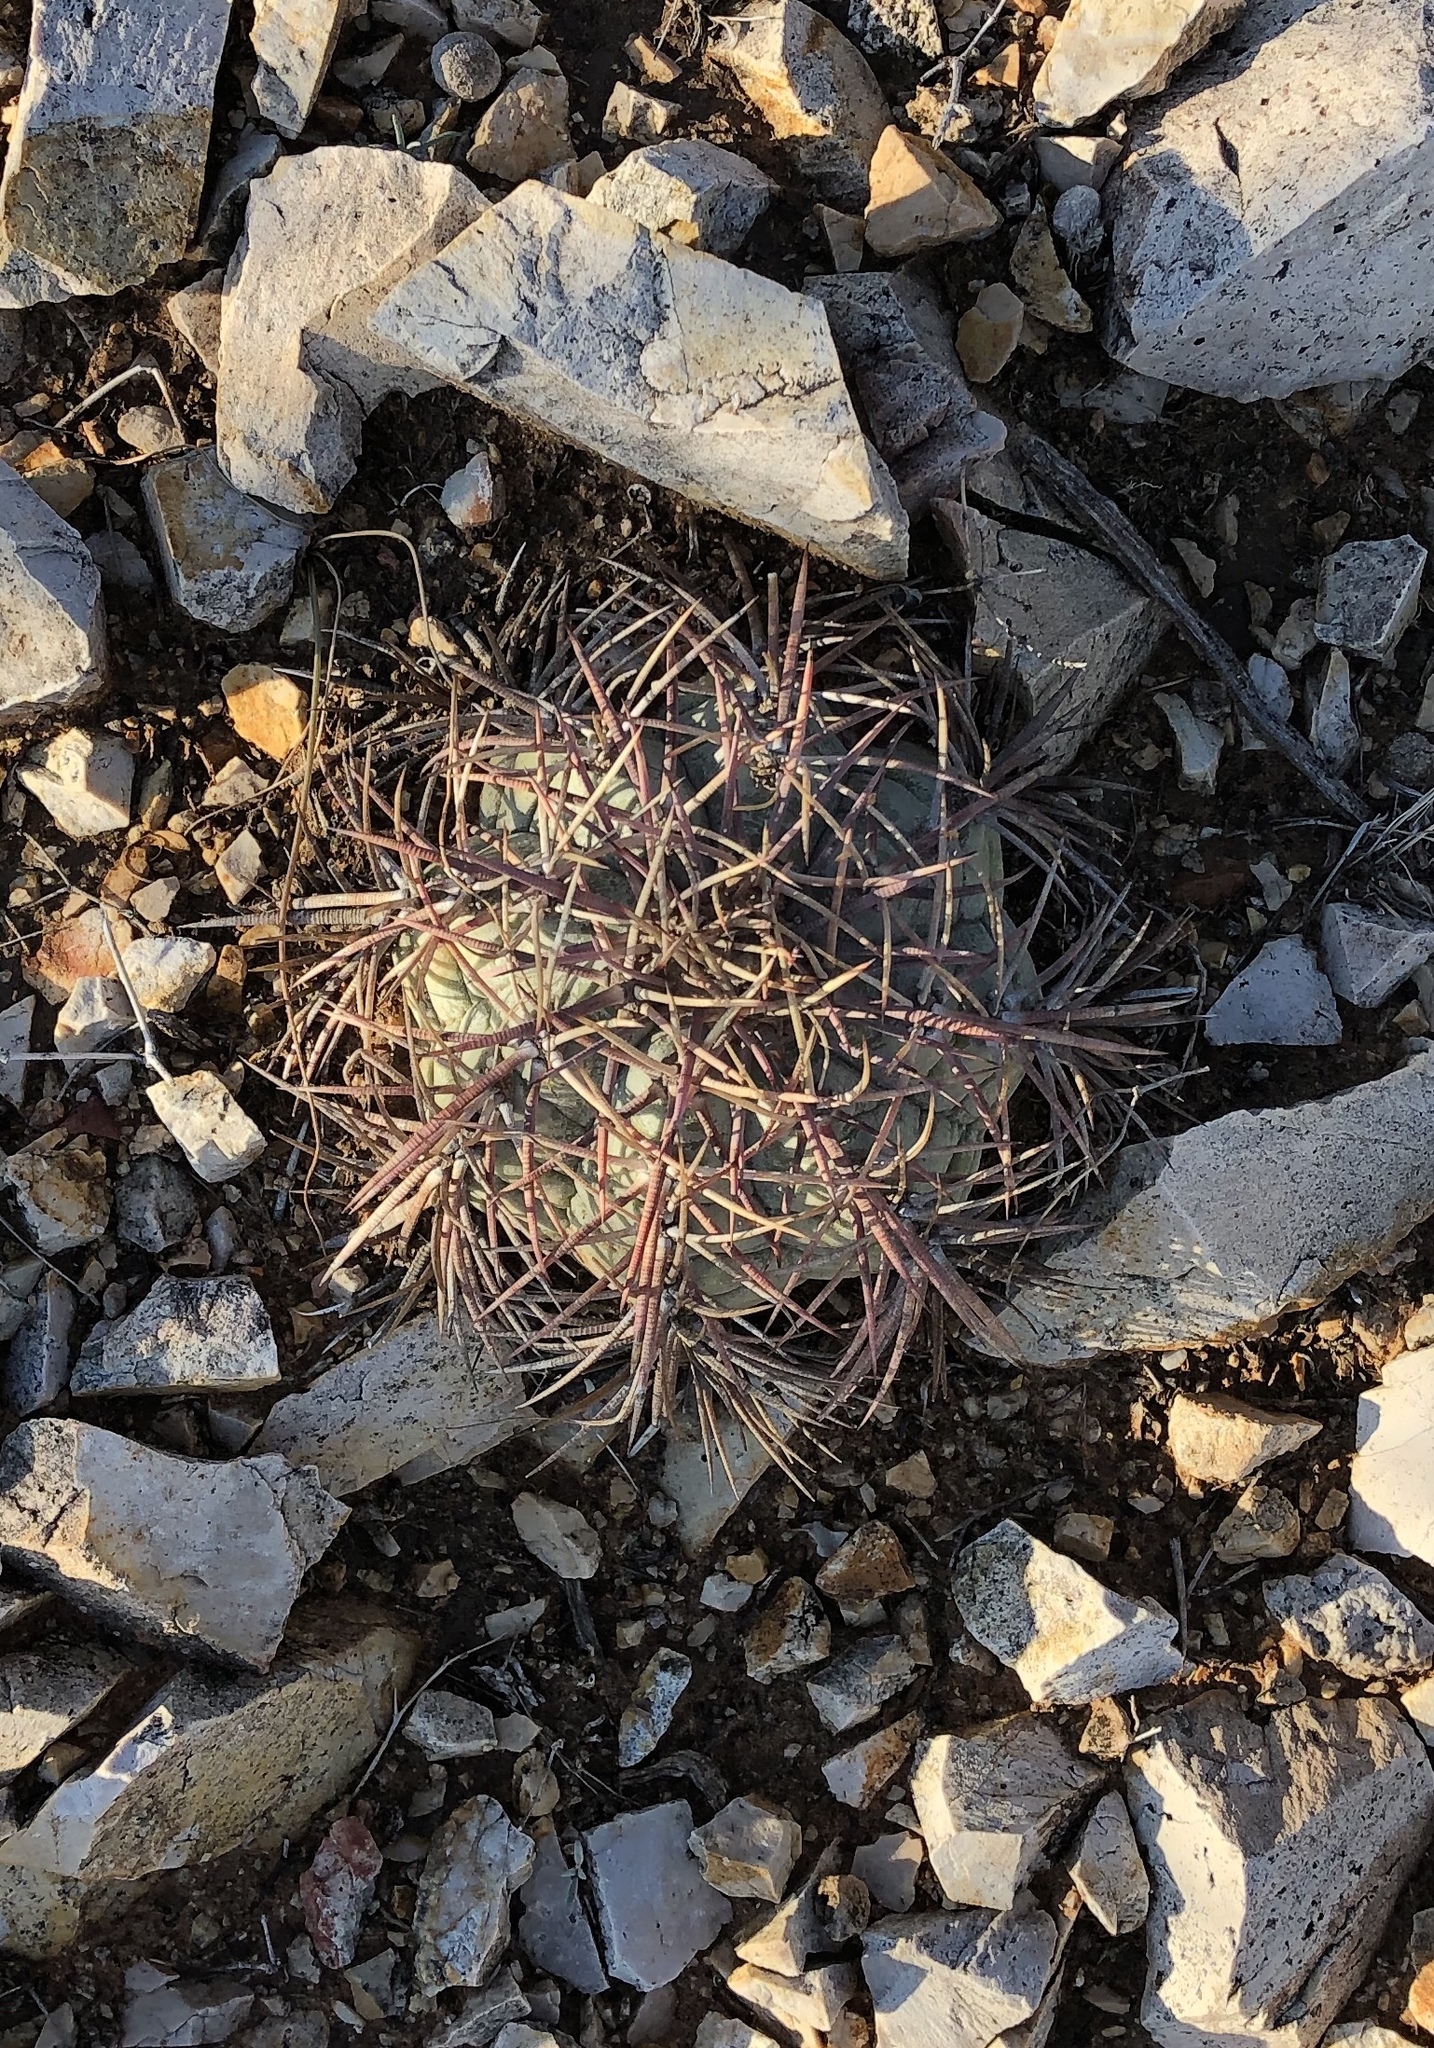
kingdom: Plantae
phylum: Tracheophyta
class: Magnoliopsida
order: Caryophyllales
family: Cactaceae
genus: Echinocactus
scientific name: Echinocactus horizonthalonius
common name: Devilshead
